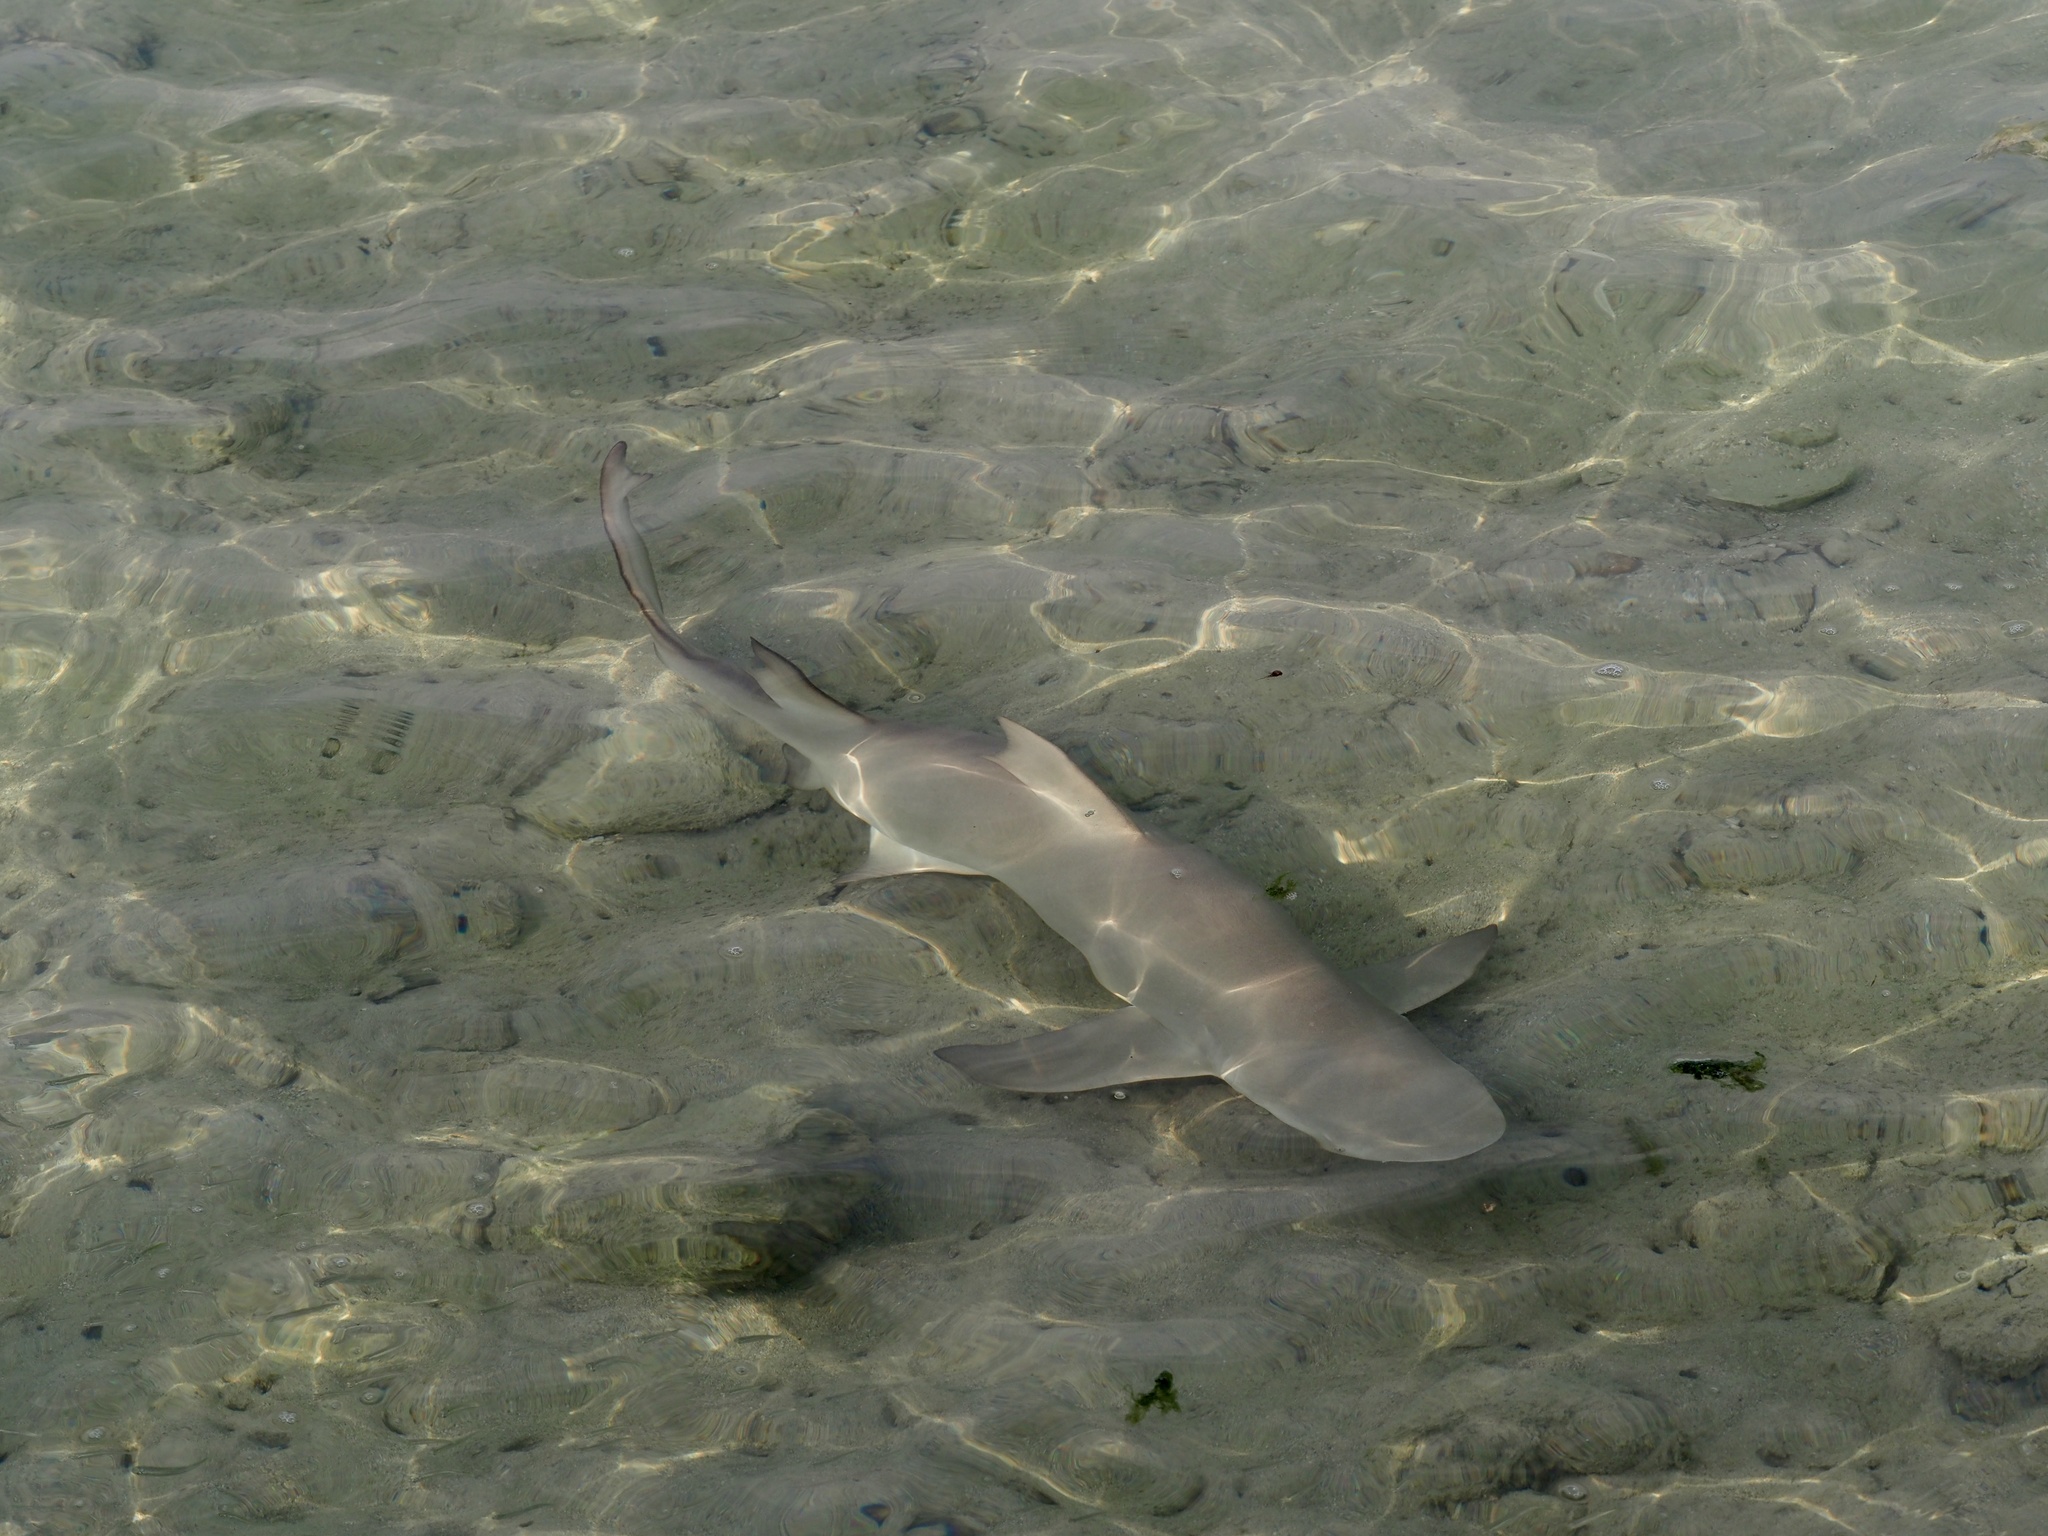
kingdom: Animalia
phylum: Chordata
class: Elasmobranchii
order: Carcharhiniformes
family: Carcharhinidae
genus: Negaprion
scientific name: Negaprion acutidens
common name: Lemon shark
